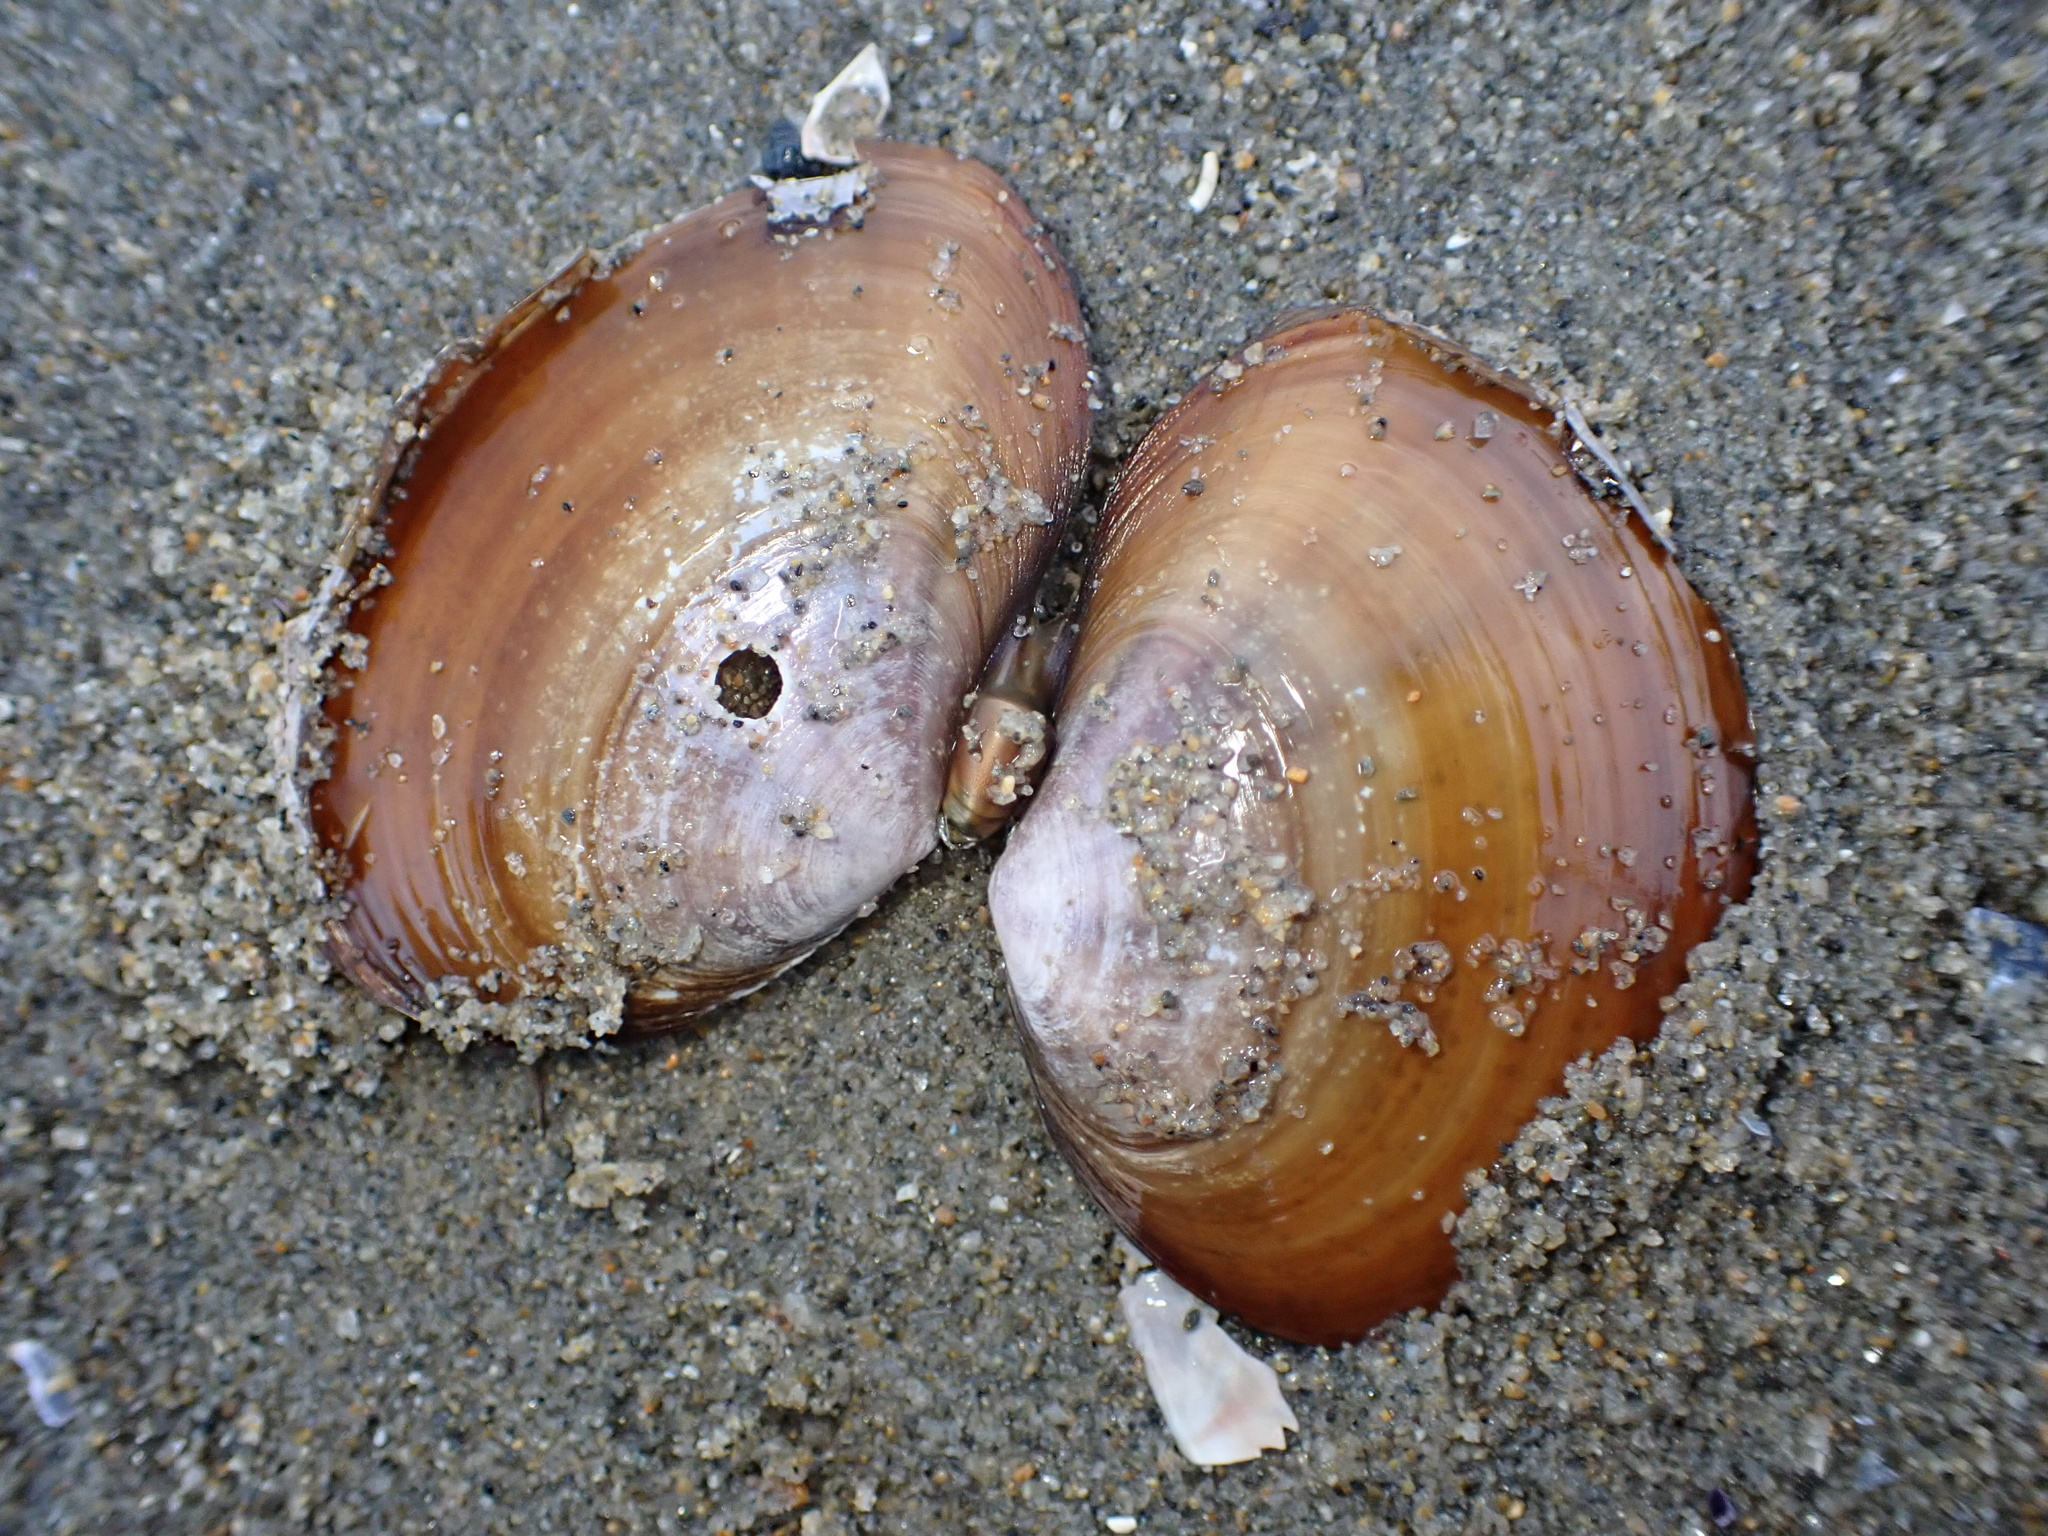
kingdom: Animalia
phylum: Mollusca
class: Bivalvia
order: Cardiida
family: Psammobiidae
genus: Nuttallia
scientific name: Nuttallia nuttallii
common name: California mahogany-clam
